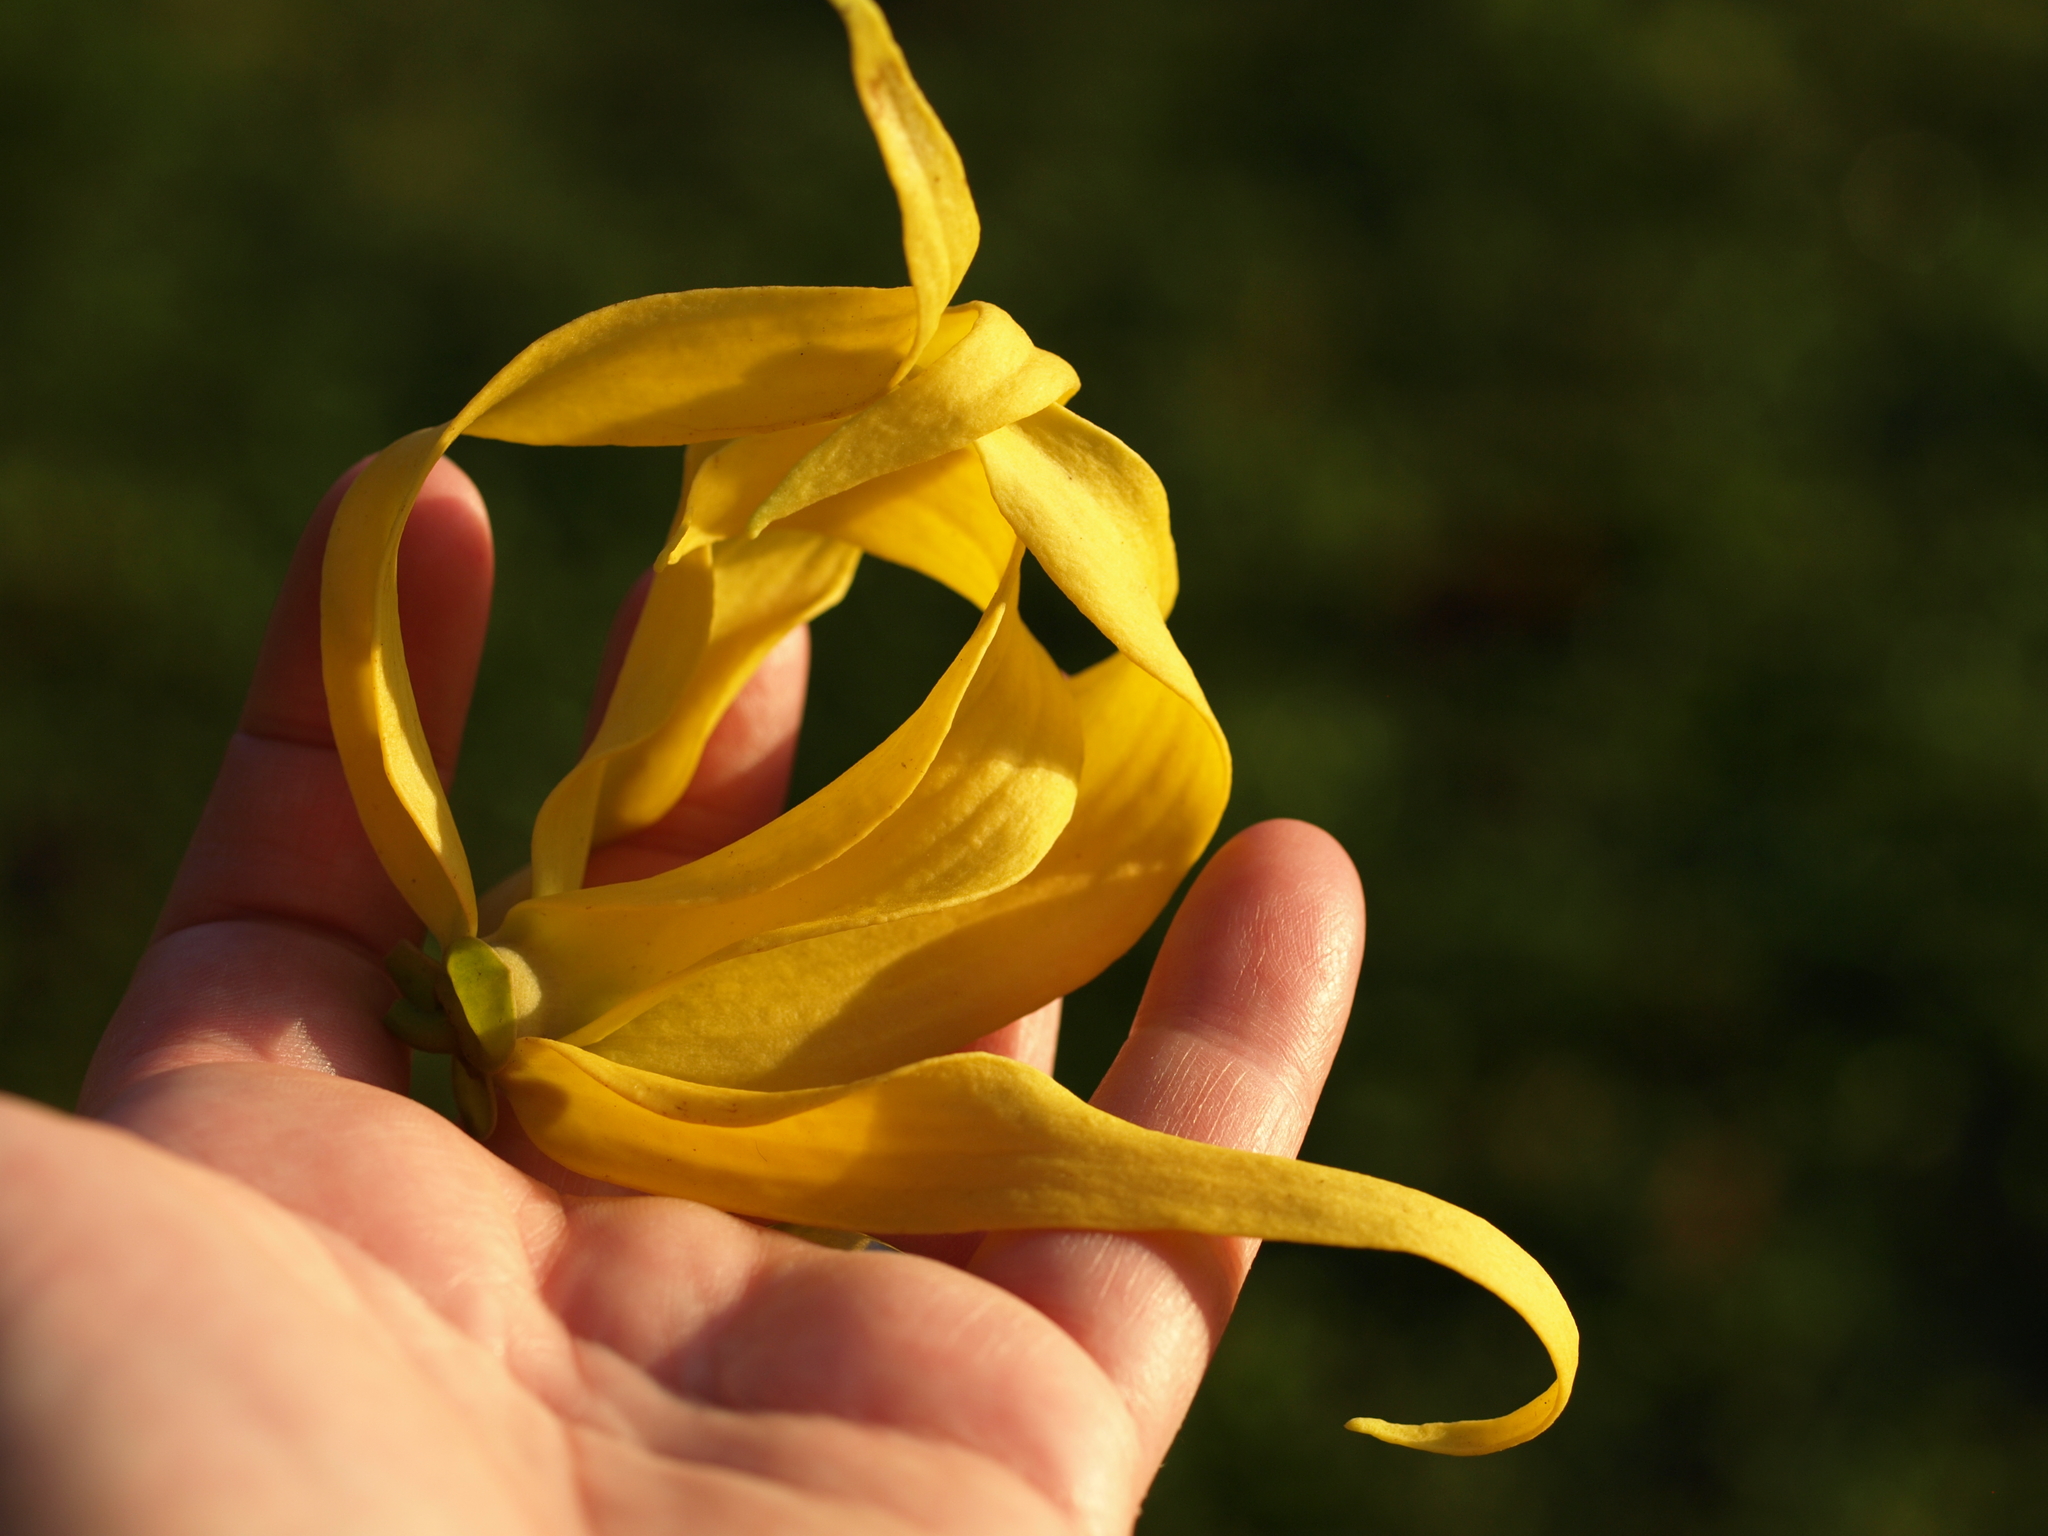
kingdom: Plantae
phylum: Tracheophyta
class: Magnoliopsida
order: Magnoliales
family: Annonaceae
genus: Cananga
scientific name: Cananga odorata
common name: Cananga tree
